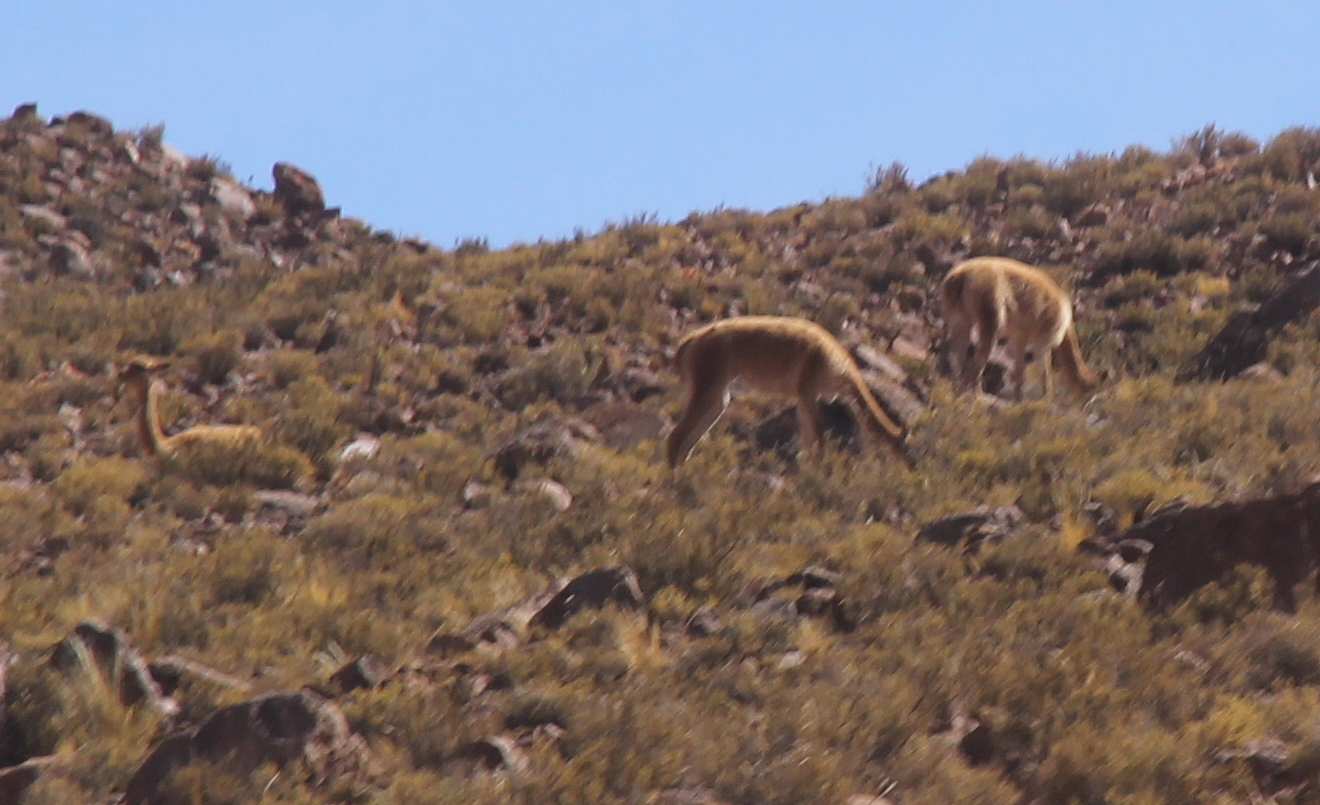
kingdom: Animalia
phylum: Chordata
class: Mammalia
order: Artiodactyla
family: Camelidae
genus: Vicugna
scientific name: Vicugna vicugna
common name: Vicugna
